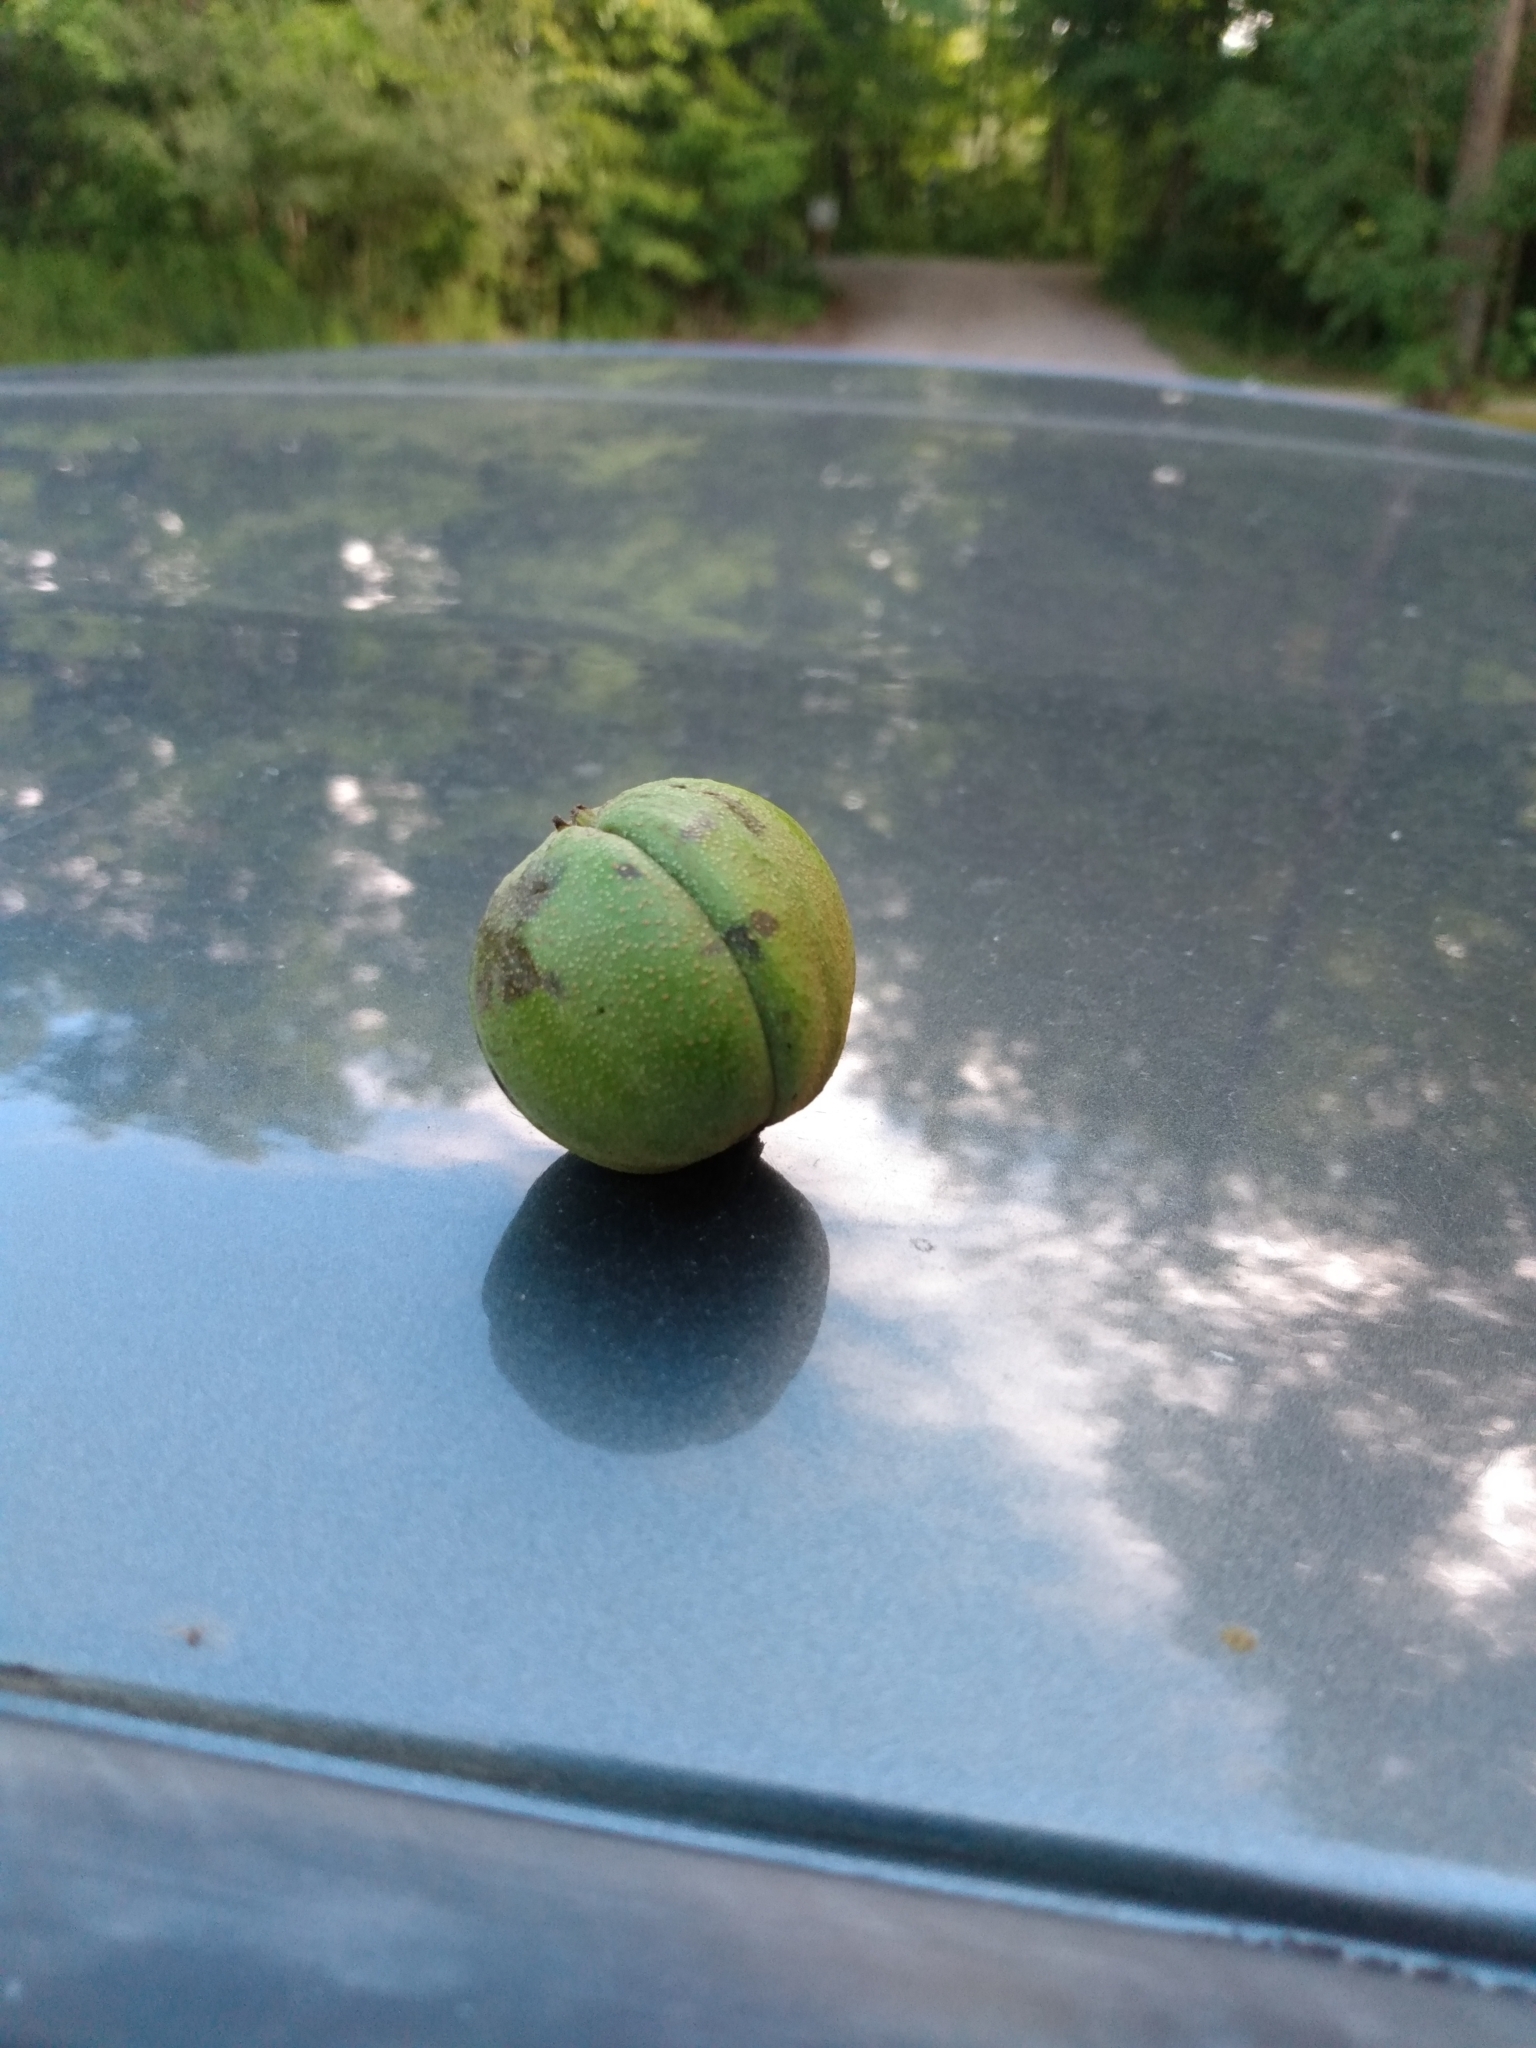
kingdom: Plantae
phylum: Tracheophyta
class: Magnoliopsida
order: Fagales
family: Juglandaceae
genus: Carya
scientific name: Carya ovata
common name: Shagbark hickory
